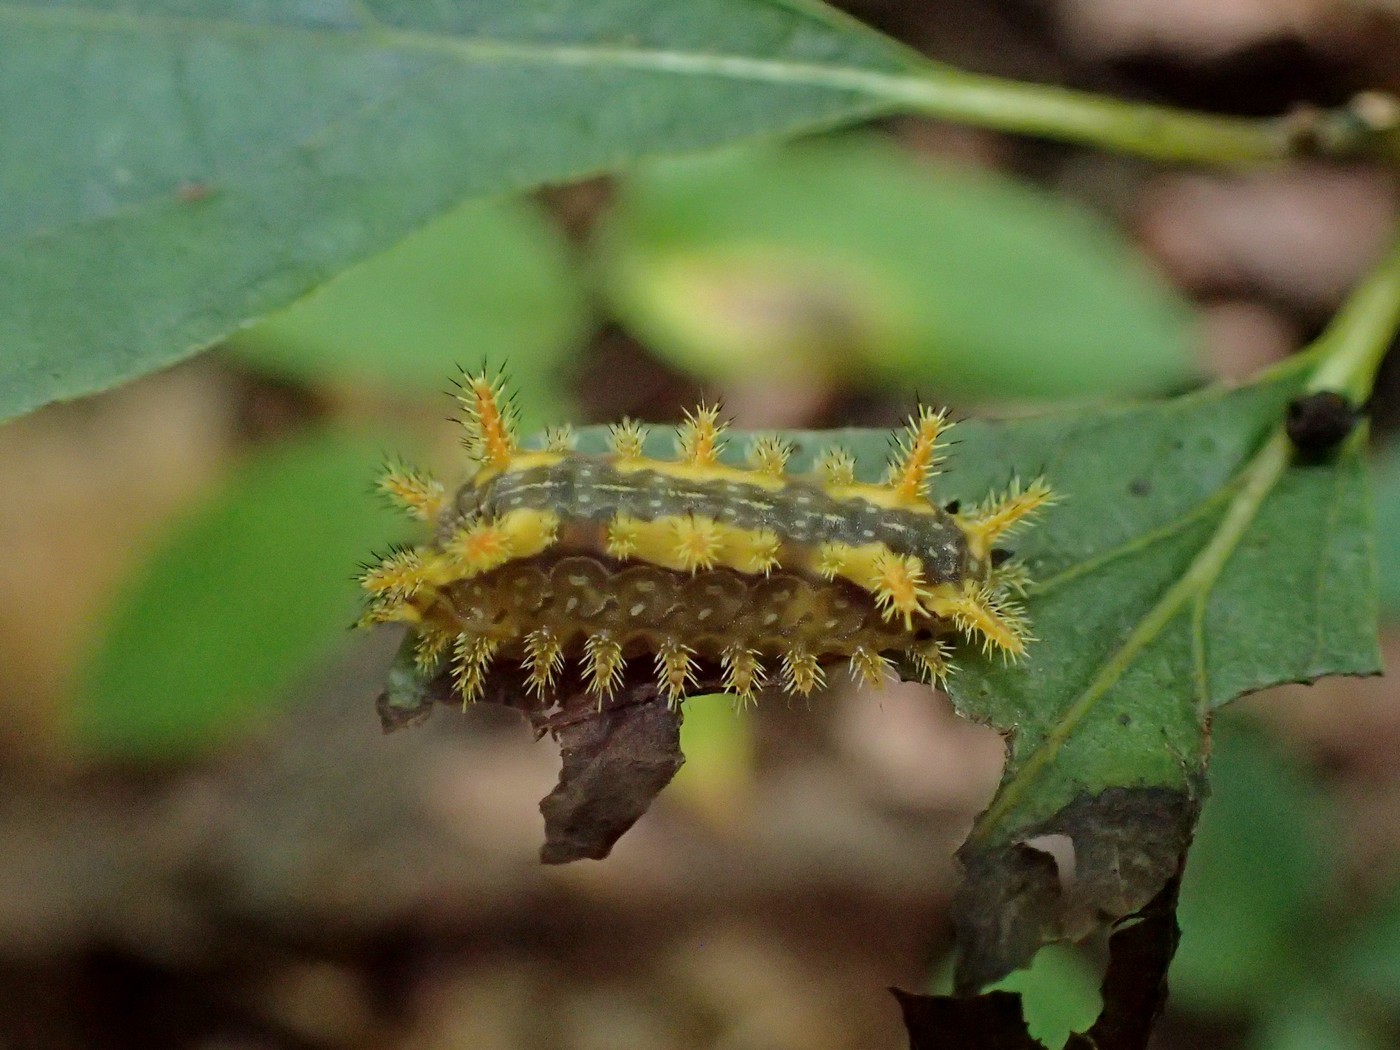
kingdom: Animalia
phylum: Arthropoda
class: Insecta
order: Lepidoptera
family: Limacodidae
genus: Euclea
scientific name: Euclea delphinii
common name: Spiny oak-slug moth
